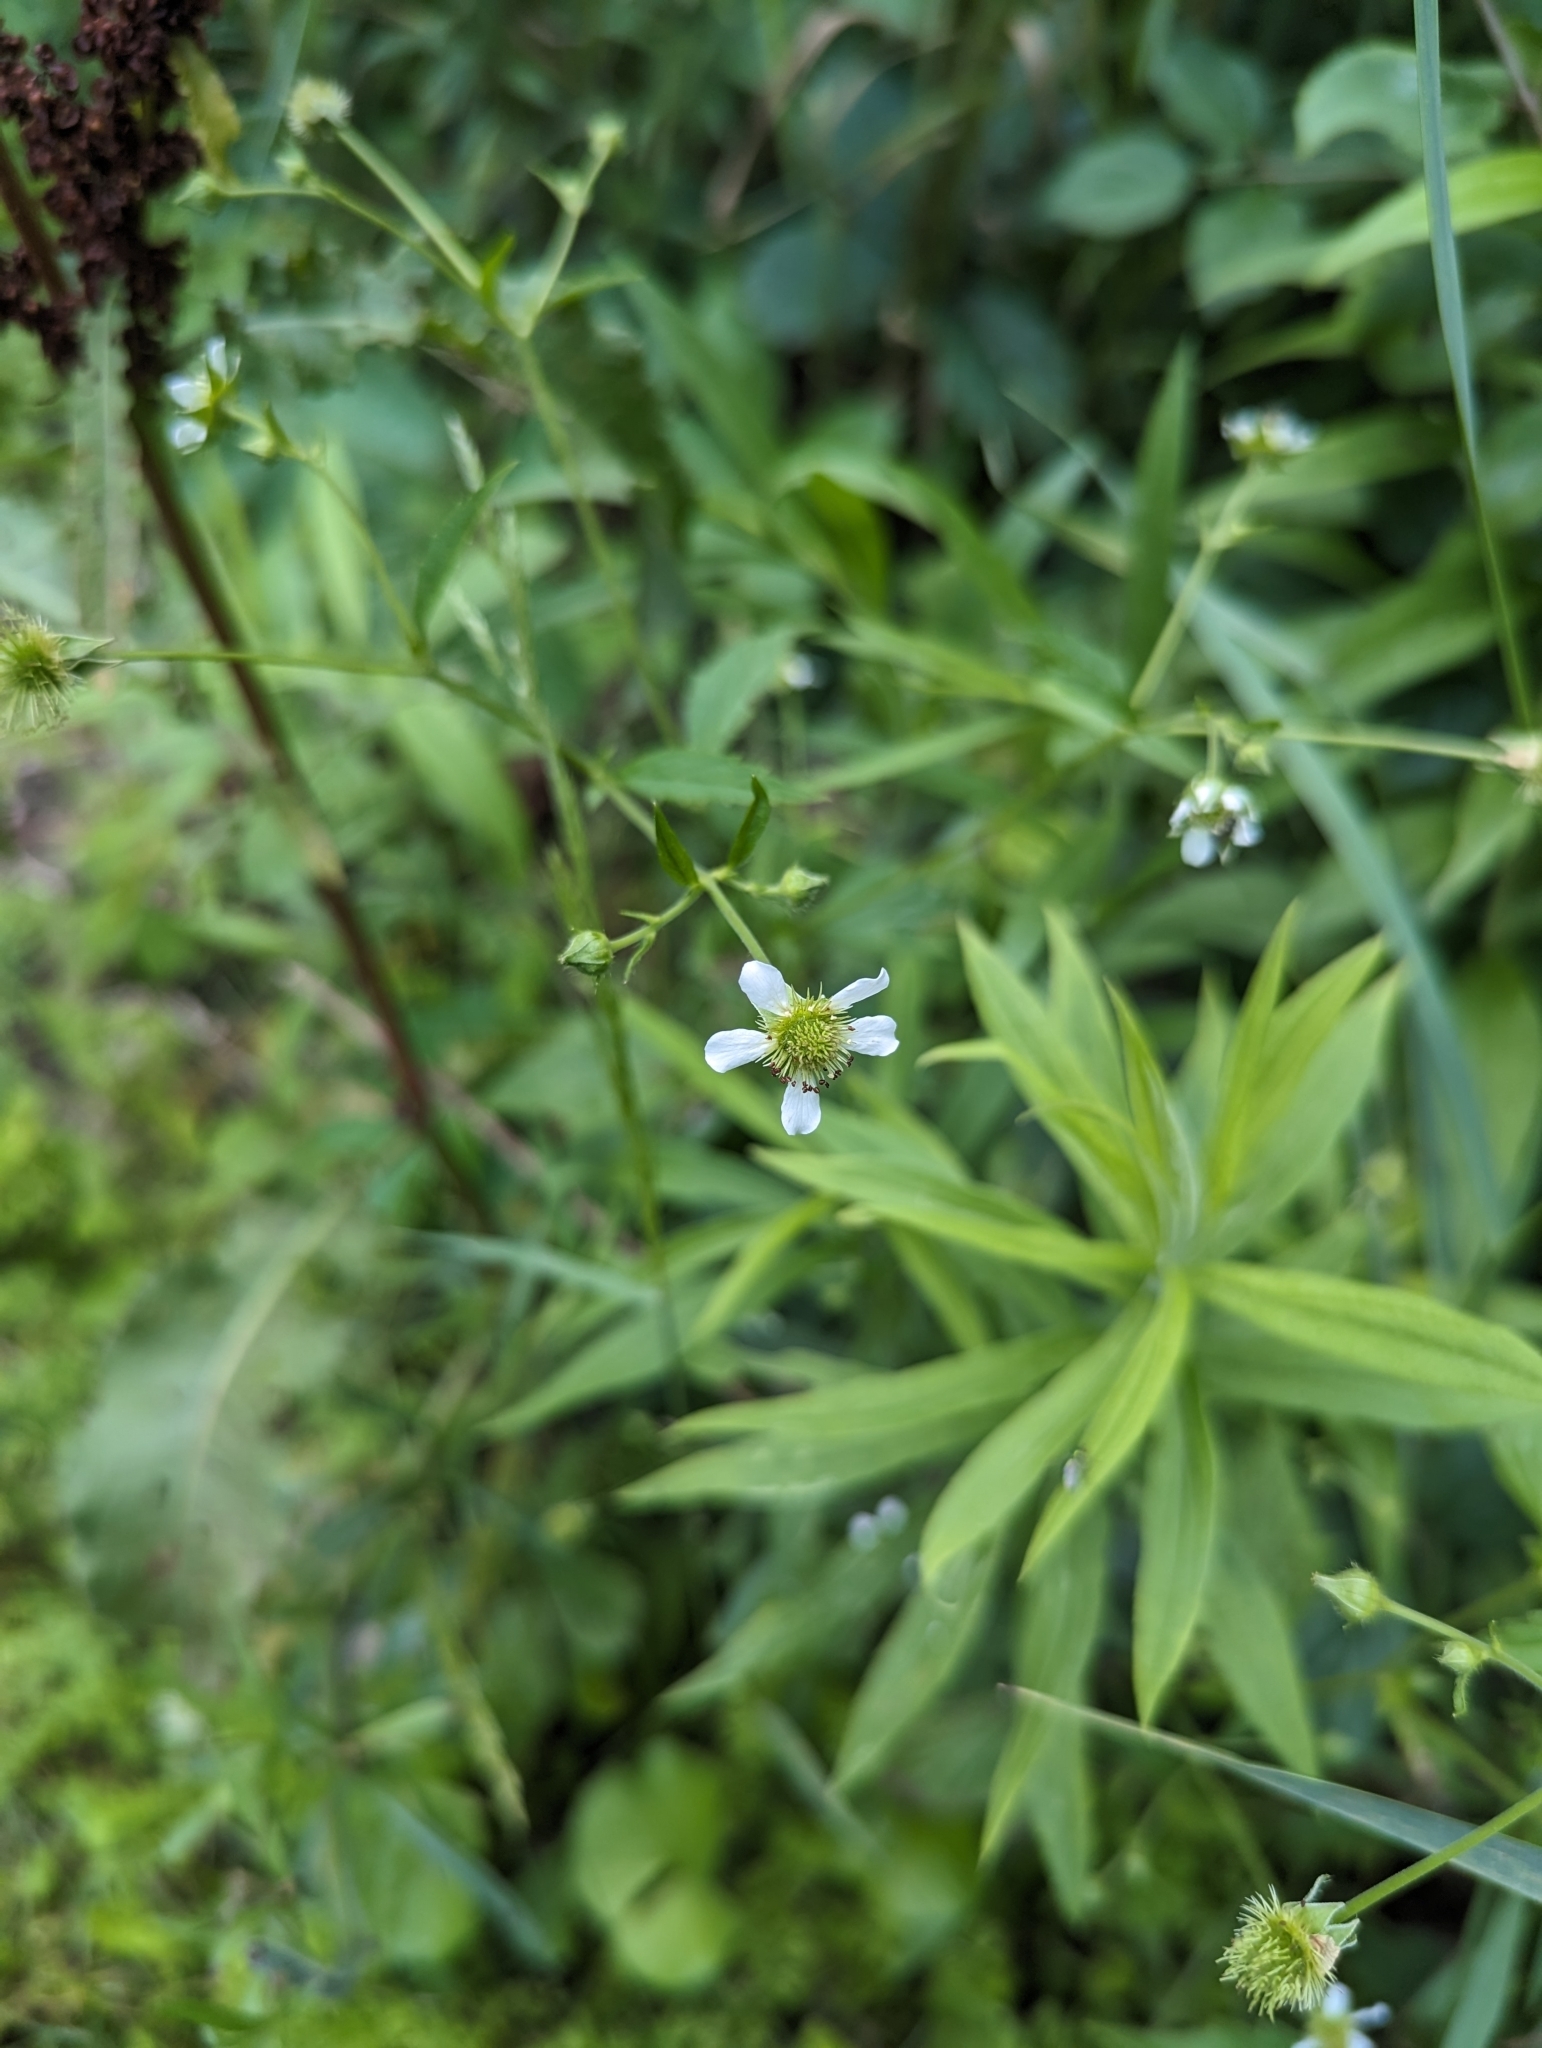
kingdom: Plantae
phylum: Tracheophyta
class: Magnoliopsida
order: Rosales
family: Rosaceae
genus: Geum
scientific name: Geum canadense
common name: White avens
